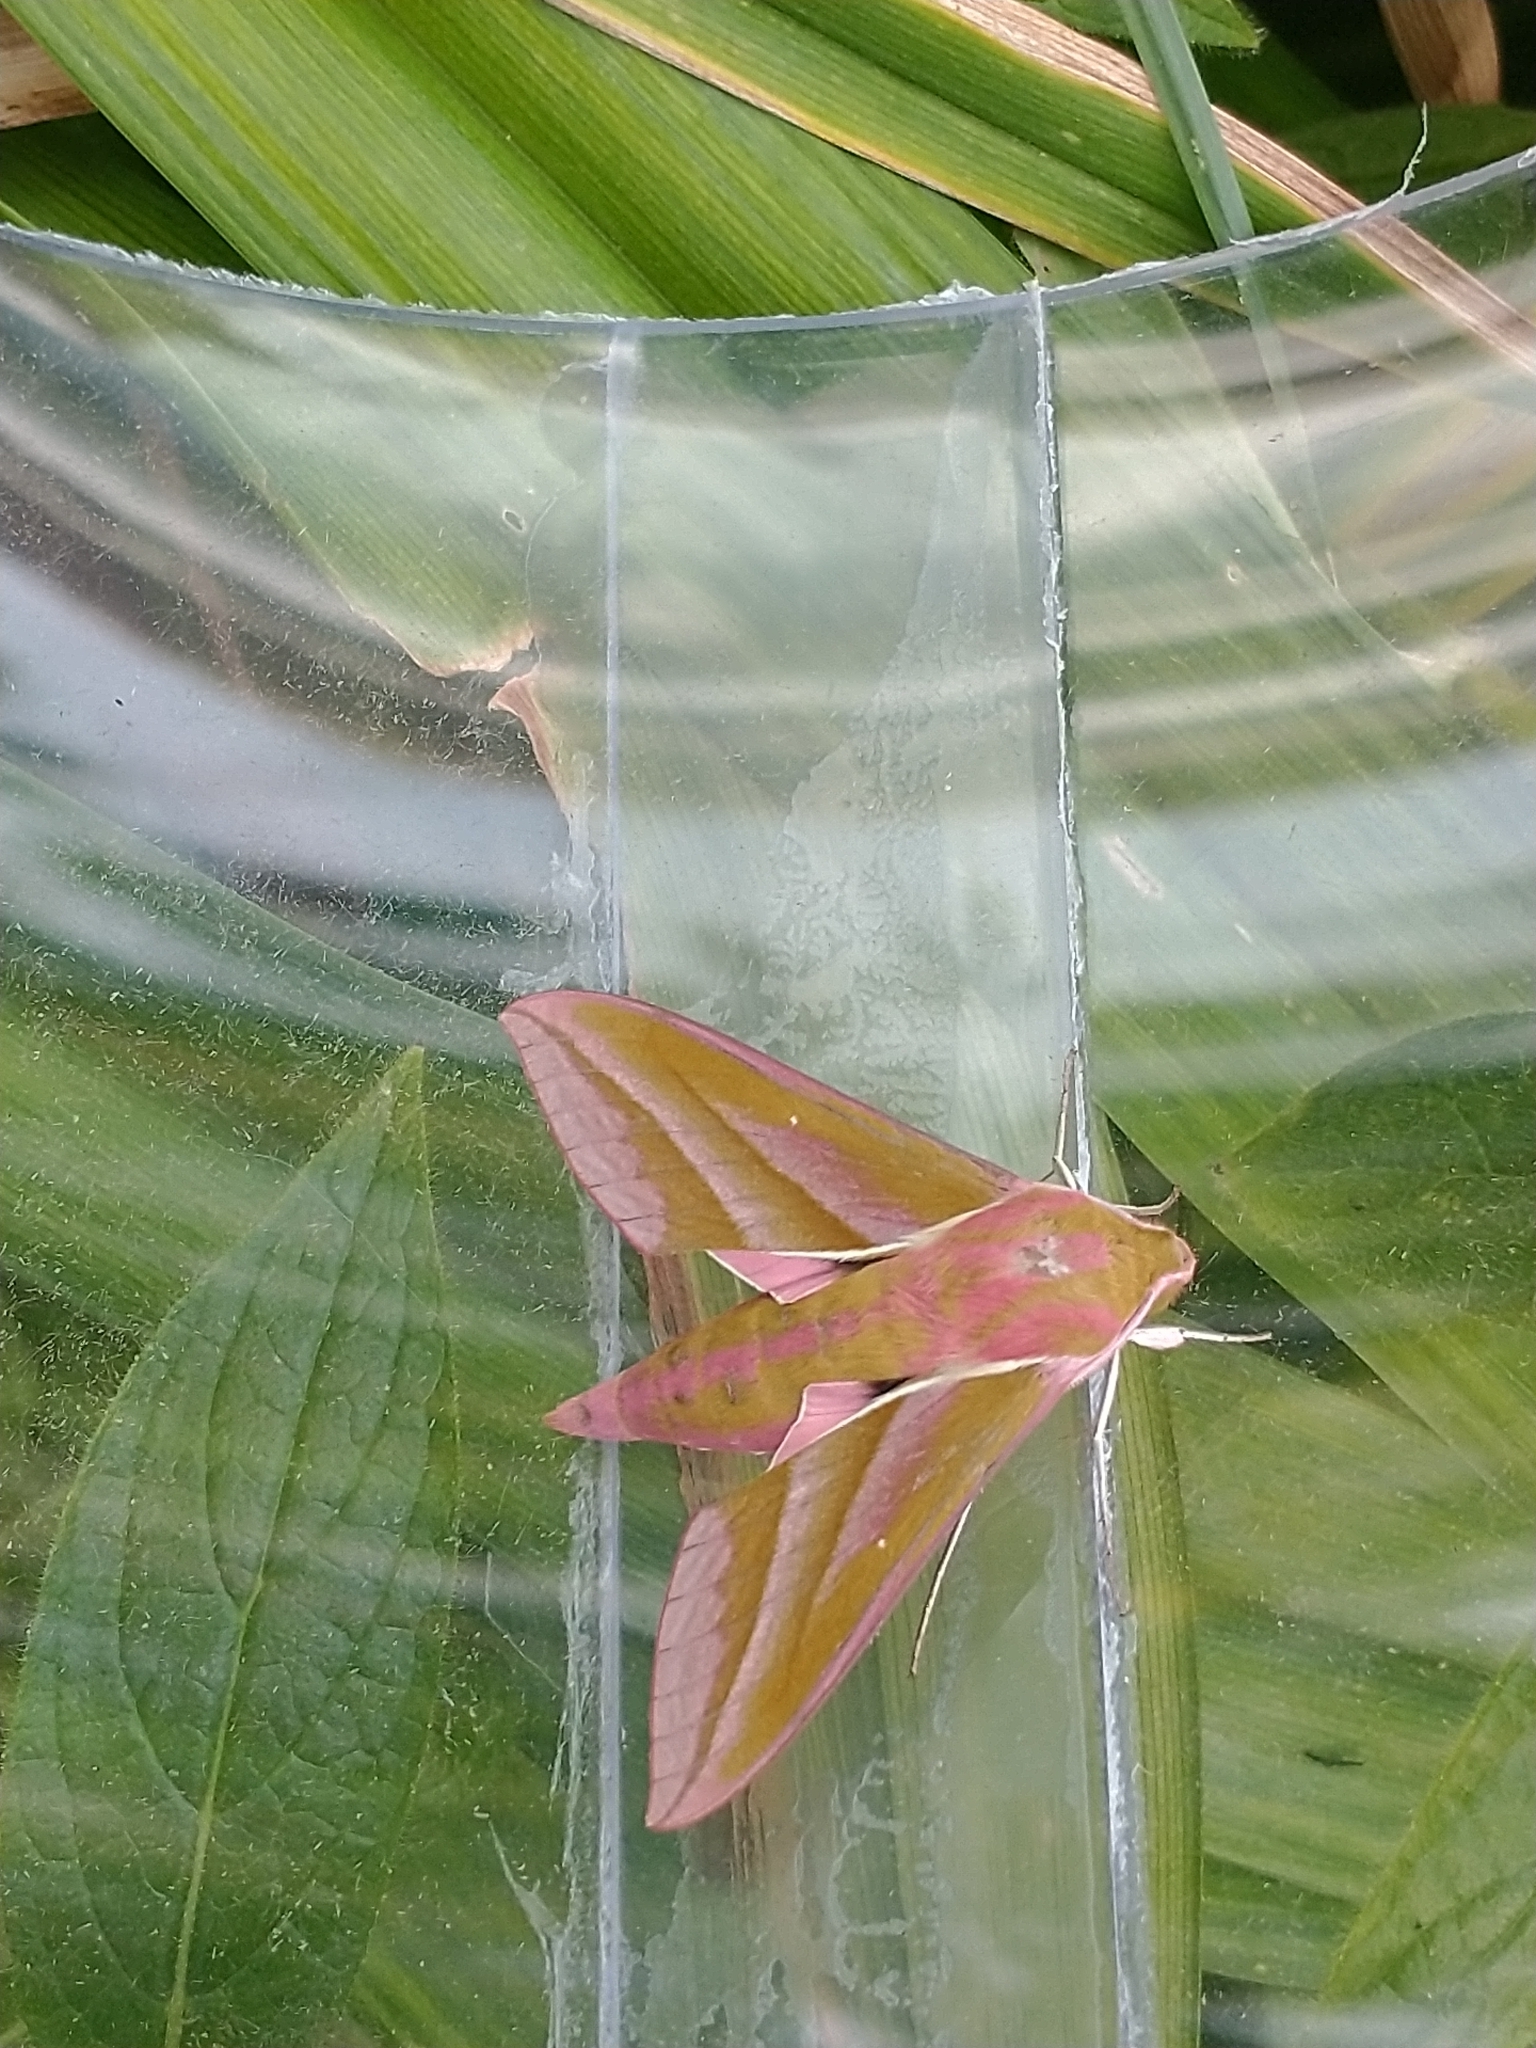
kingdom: Animalia
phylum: Arthropoda
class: Insecta
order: Lepidoptera
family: Sphingidae
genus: Deilephila
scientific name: Deilephila elpenor
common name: Elephant hawk-moth
